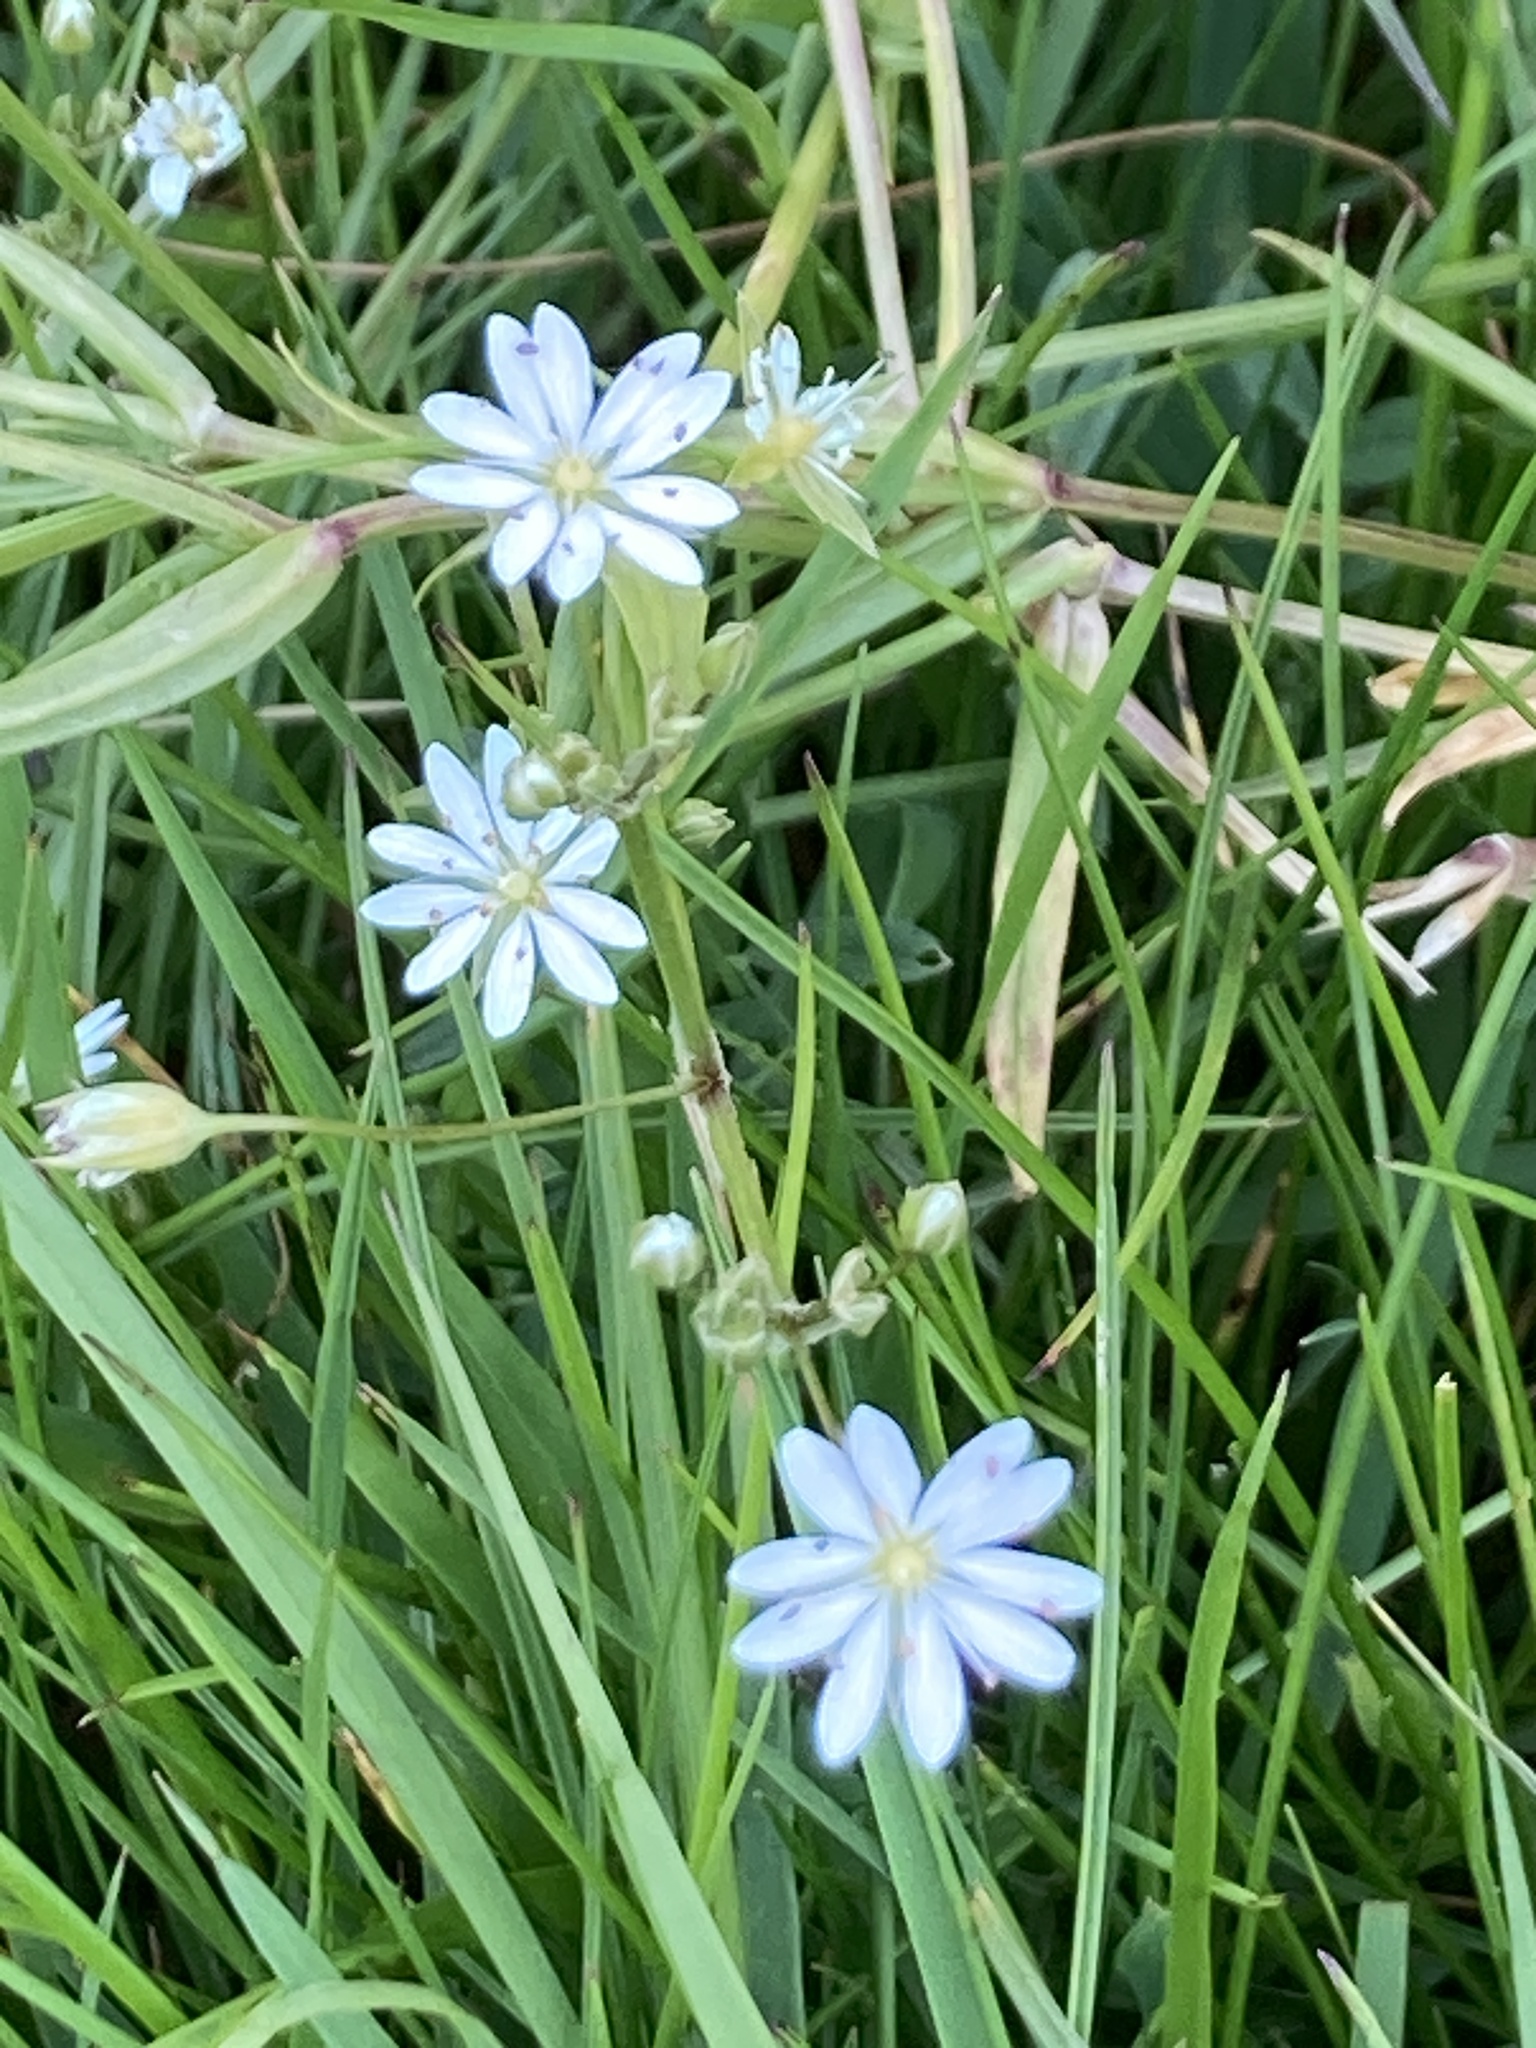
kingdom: Plantae
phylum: Tracheophyta
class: Magnoliopsida
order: Caryophyllales
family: Caryophyllaceae
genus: Stellaria
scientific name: Stellaria graminea
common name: Grass-like starwort
